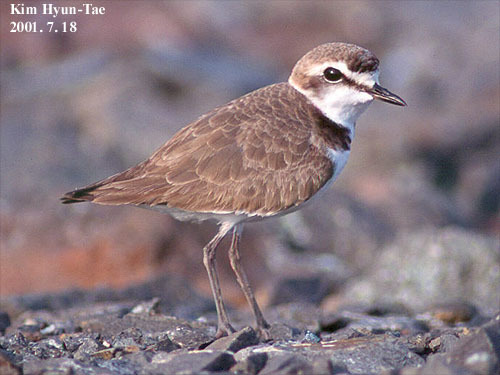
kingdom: Animalia
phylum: Chordata
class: Aves
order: Charadriiformes
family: Charadriidae
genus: Charadrius
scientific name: Charadrius alexandrinus
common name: Kentish plover
